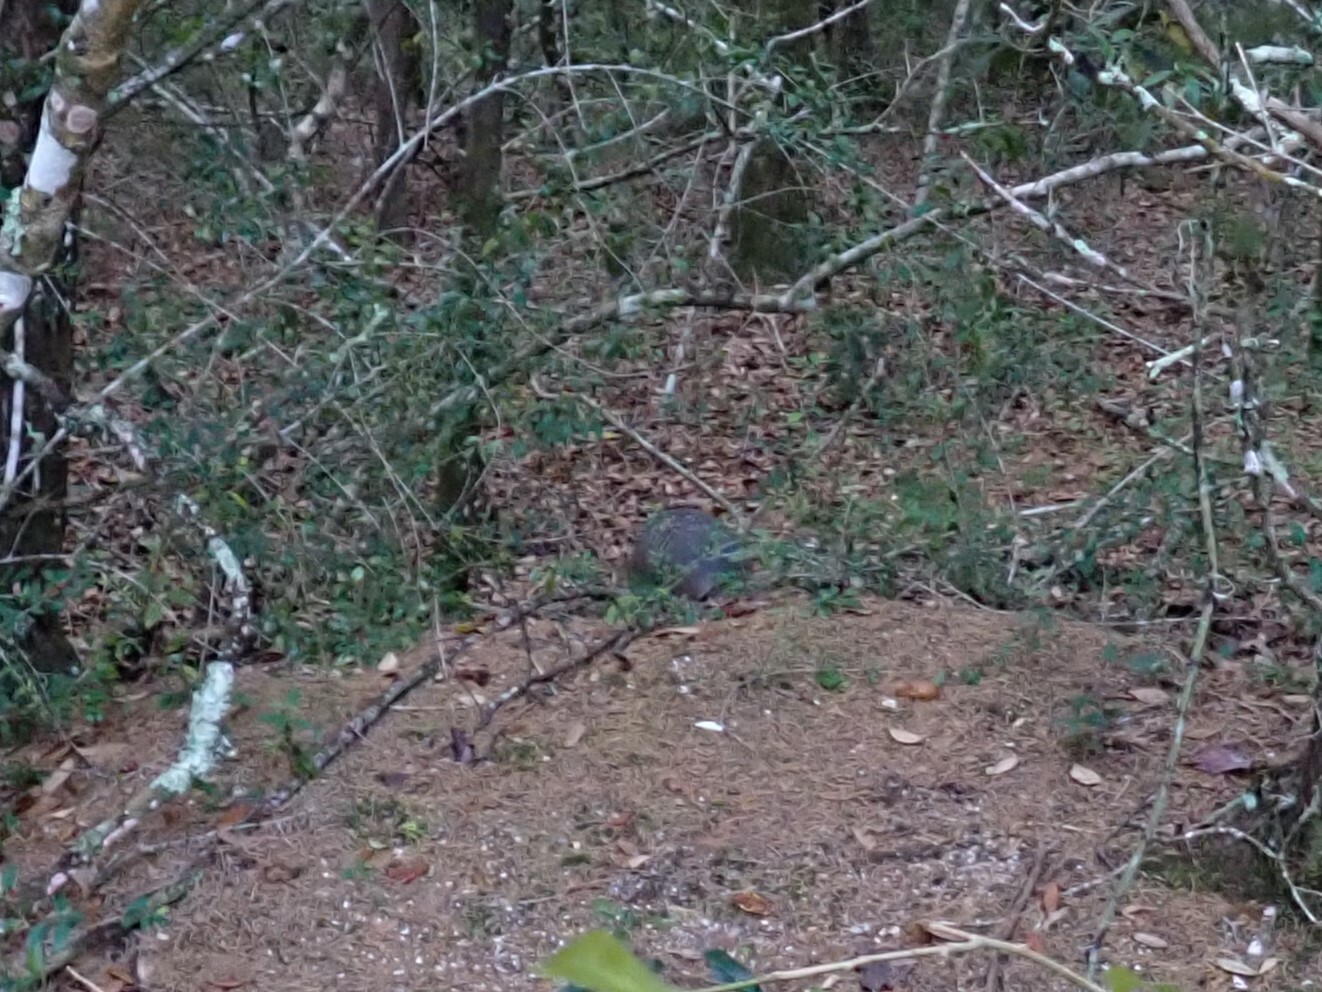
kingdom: Animalia
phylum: Chordata
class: Mammalia
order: Cingulata
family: Dasypodidae
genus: Dasypus
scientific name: Dasypus novemcinctus
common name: Nine-banded armadillo
